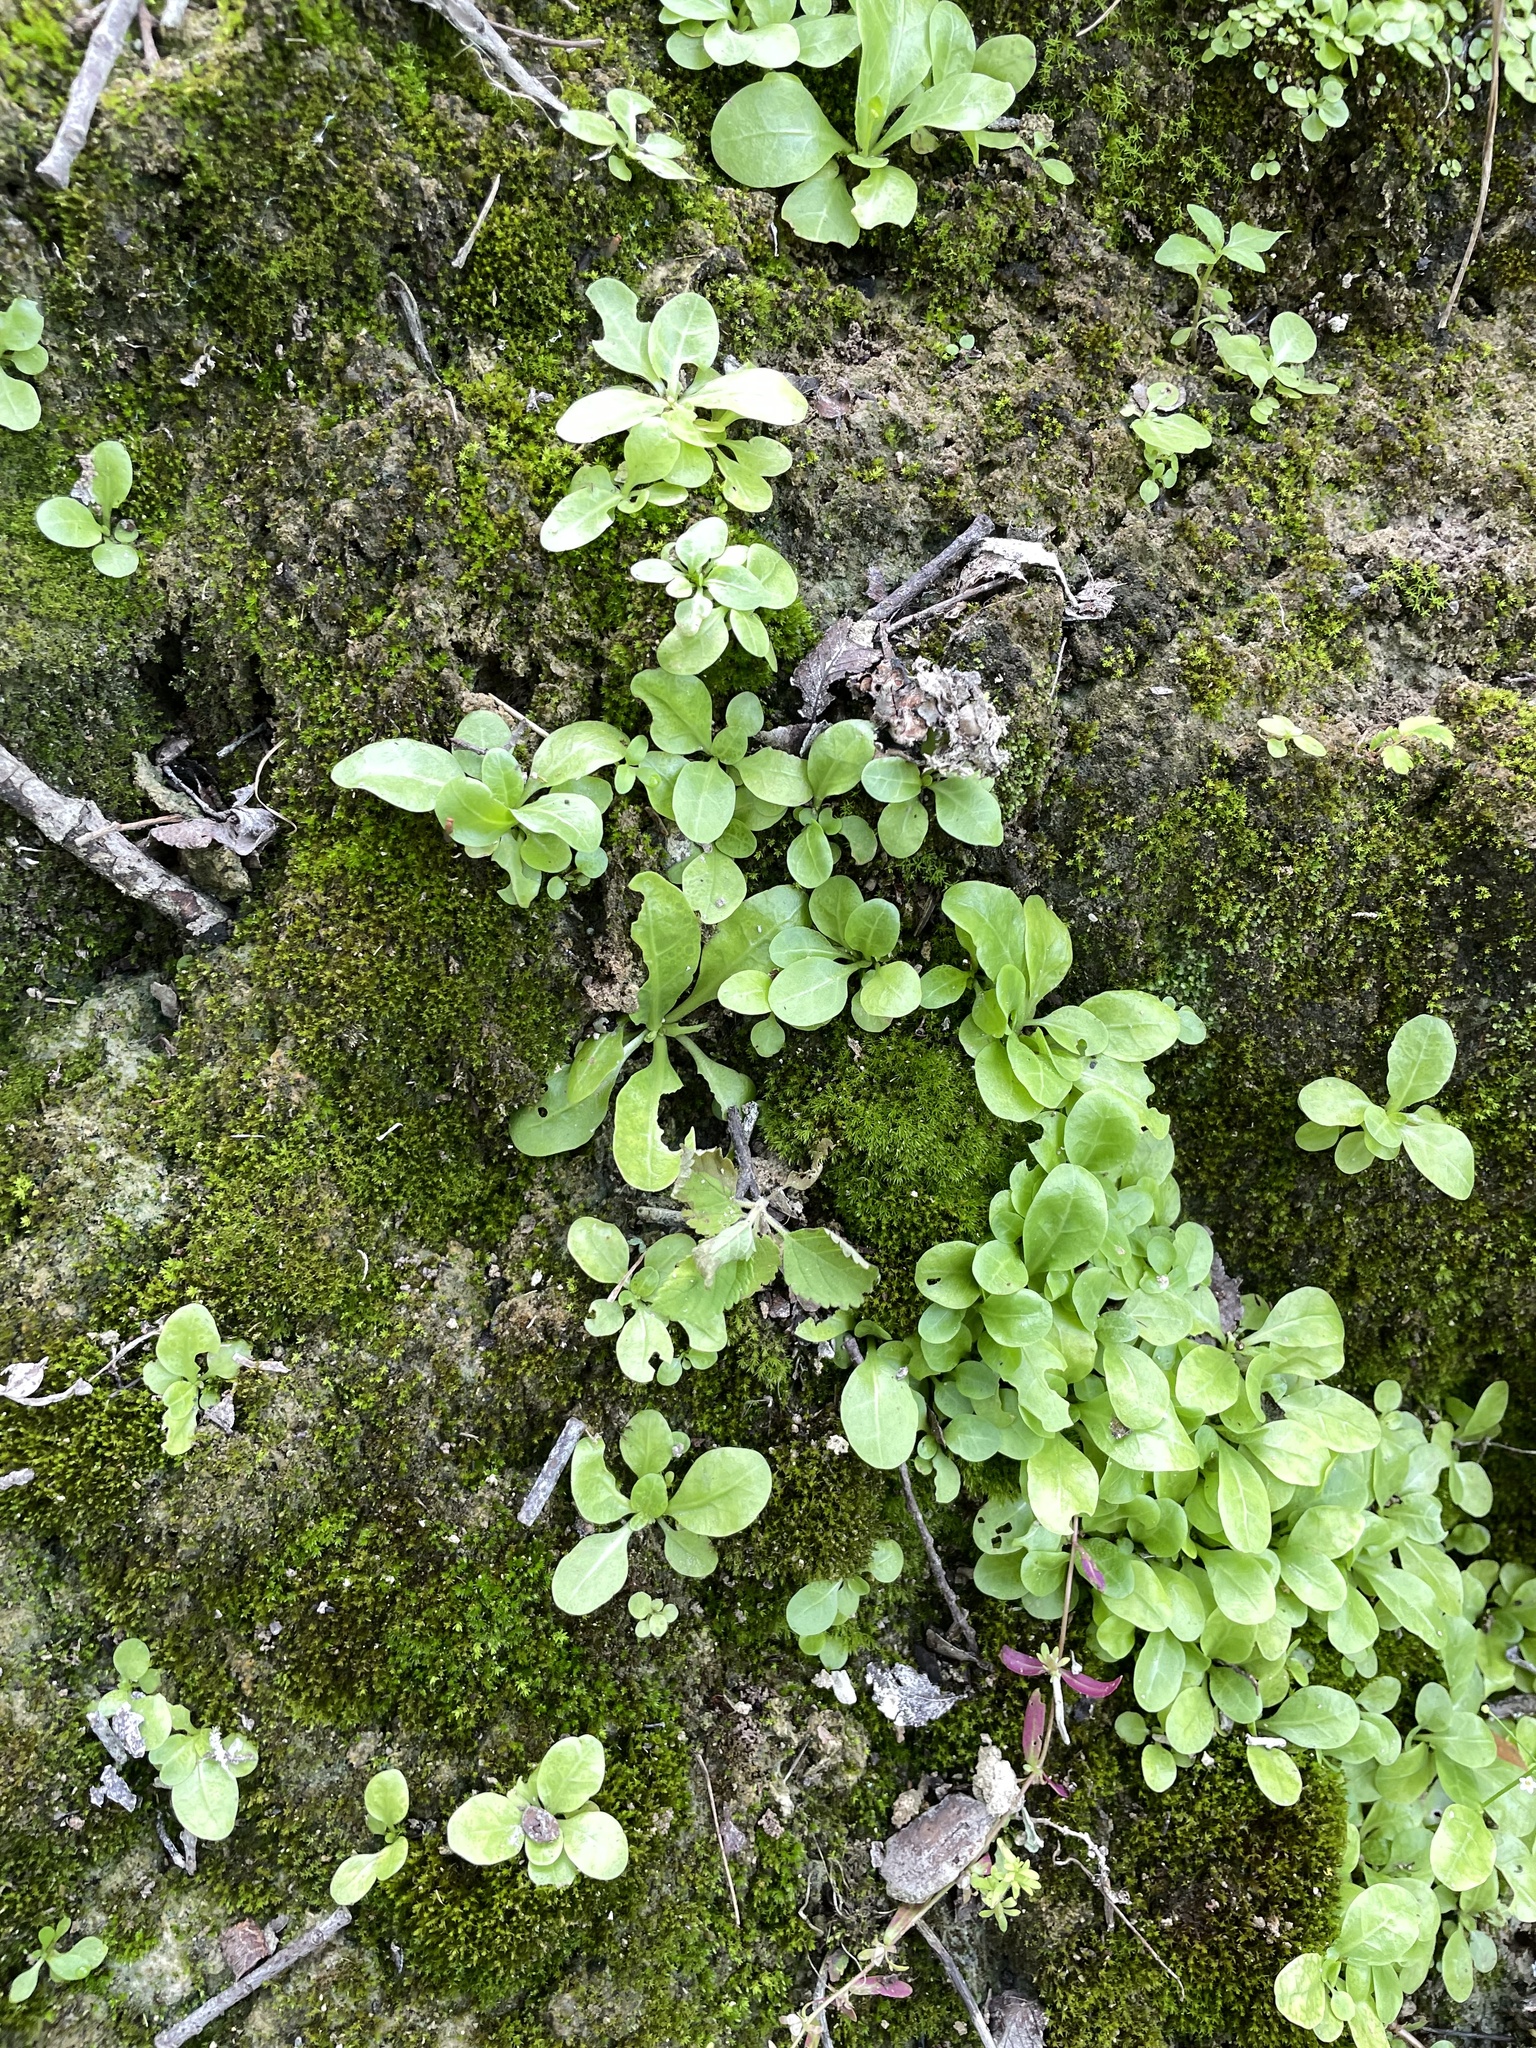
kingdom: Plantae
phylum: Tracheophyta
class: Magnoliopsida
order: Ericales
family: Primulaceae
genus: Samolus
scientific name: Samolus parviflorus
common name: False water pimpernel
